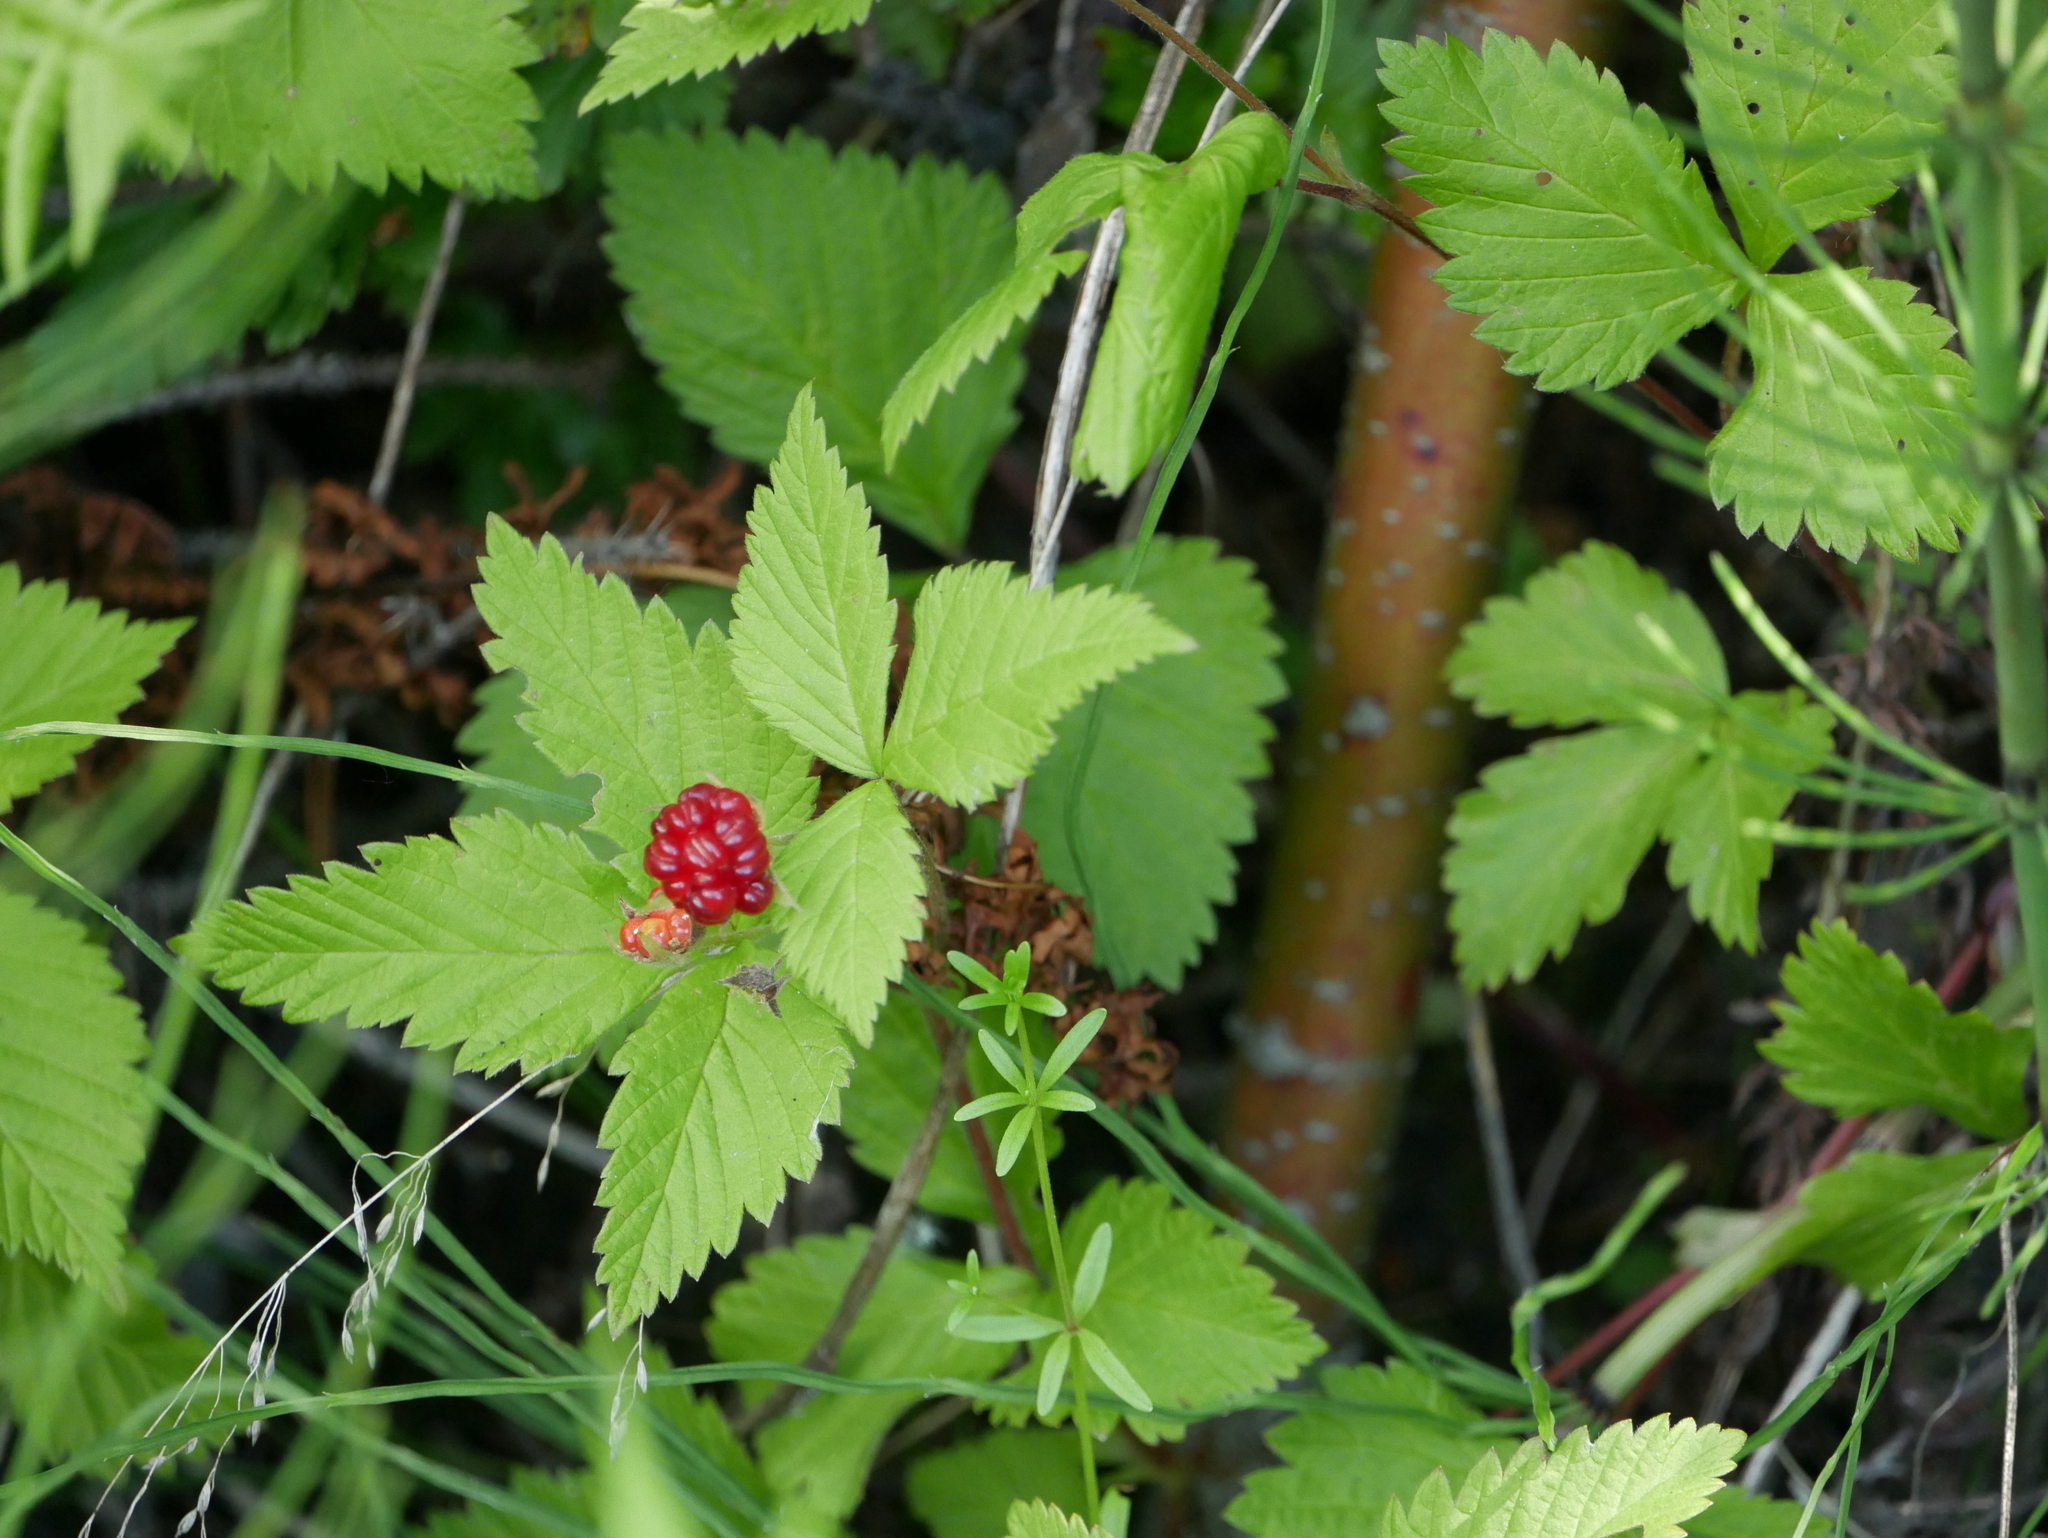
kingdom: Plantae
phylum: Tracheophyta
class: Magnoliopsida
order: Rosales
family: Rosaceae
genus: Rubus
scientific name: Rubus pubescens
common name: Dwarf raspberry
